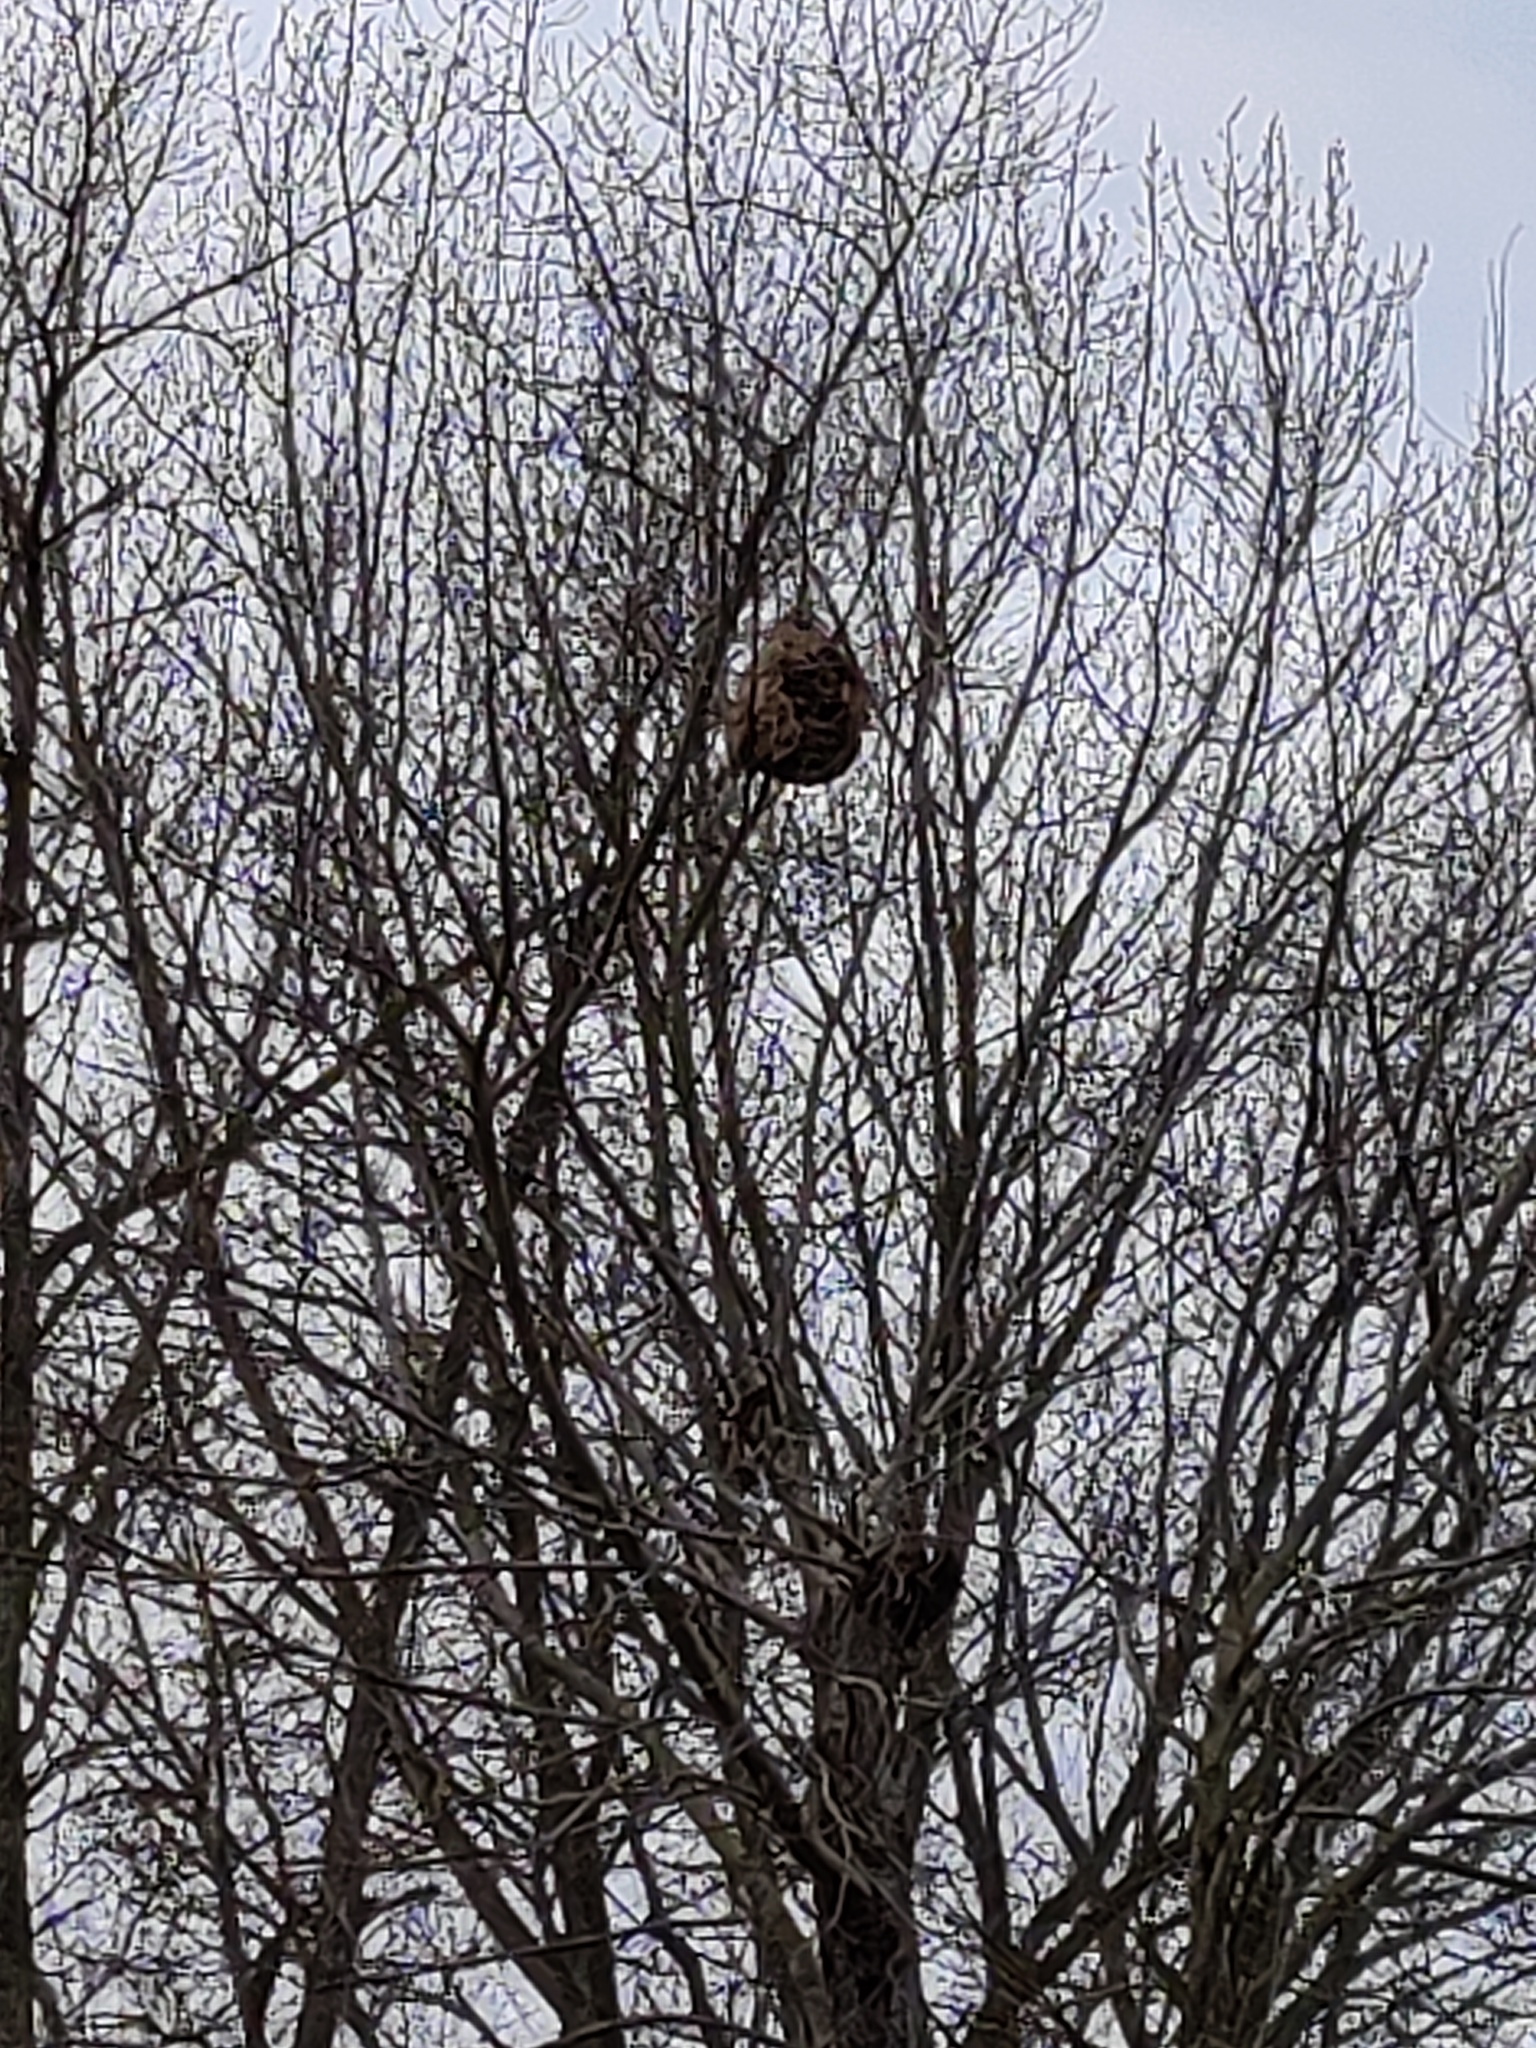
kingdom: Animalia
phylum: Arthropoda
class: Insecta
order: Hymenoptera
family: Vespidae
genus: Vespa
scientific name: Vespa velutina
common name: Asian hornet
